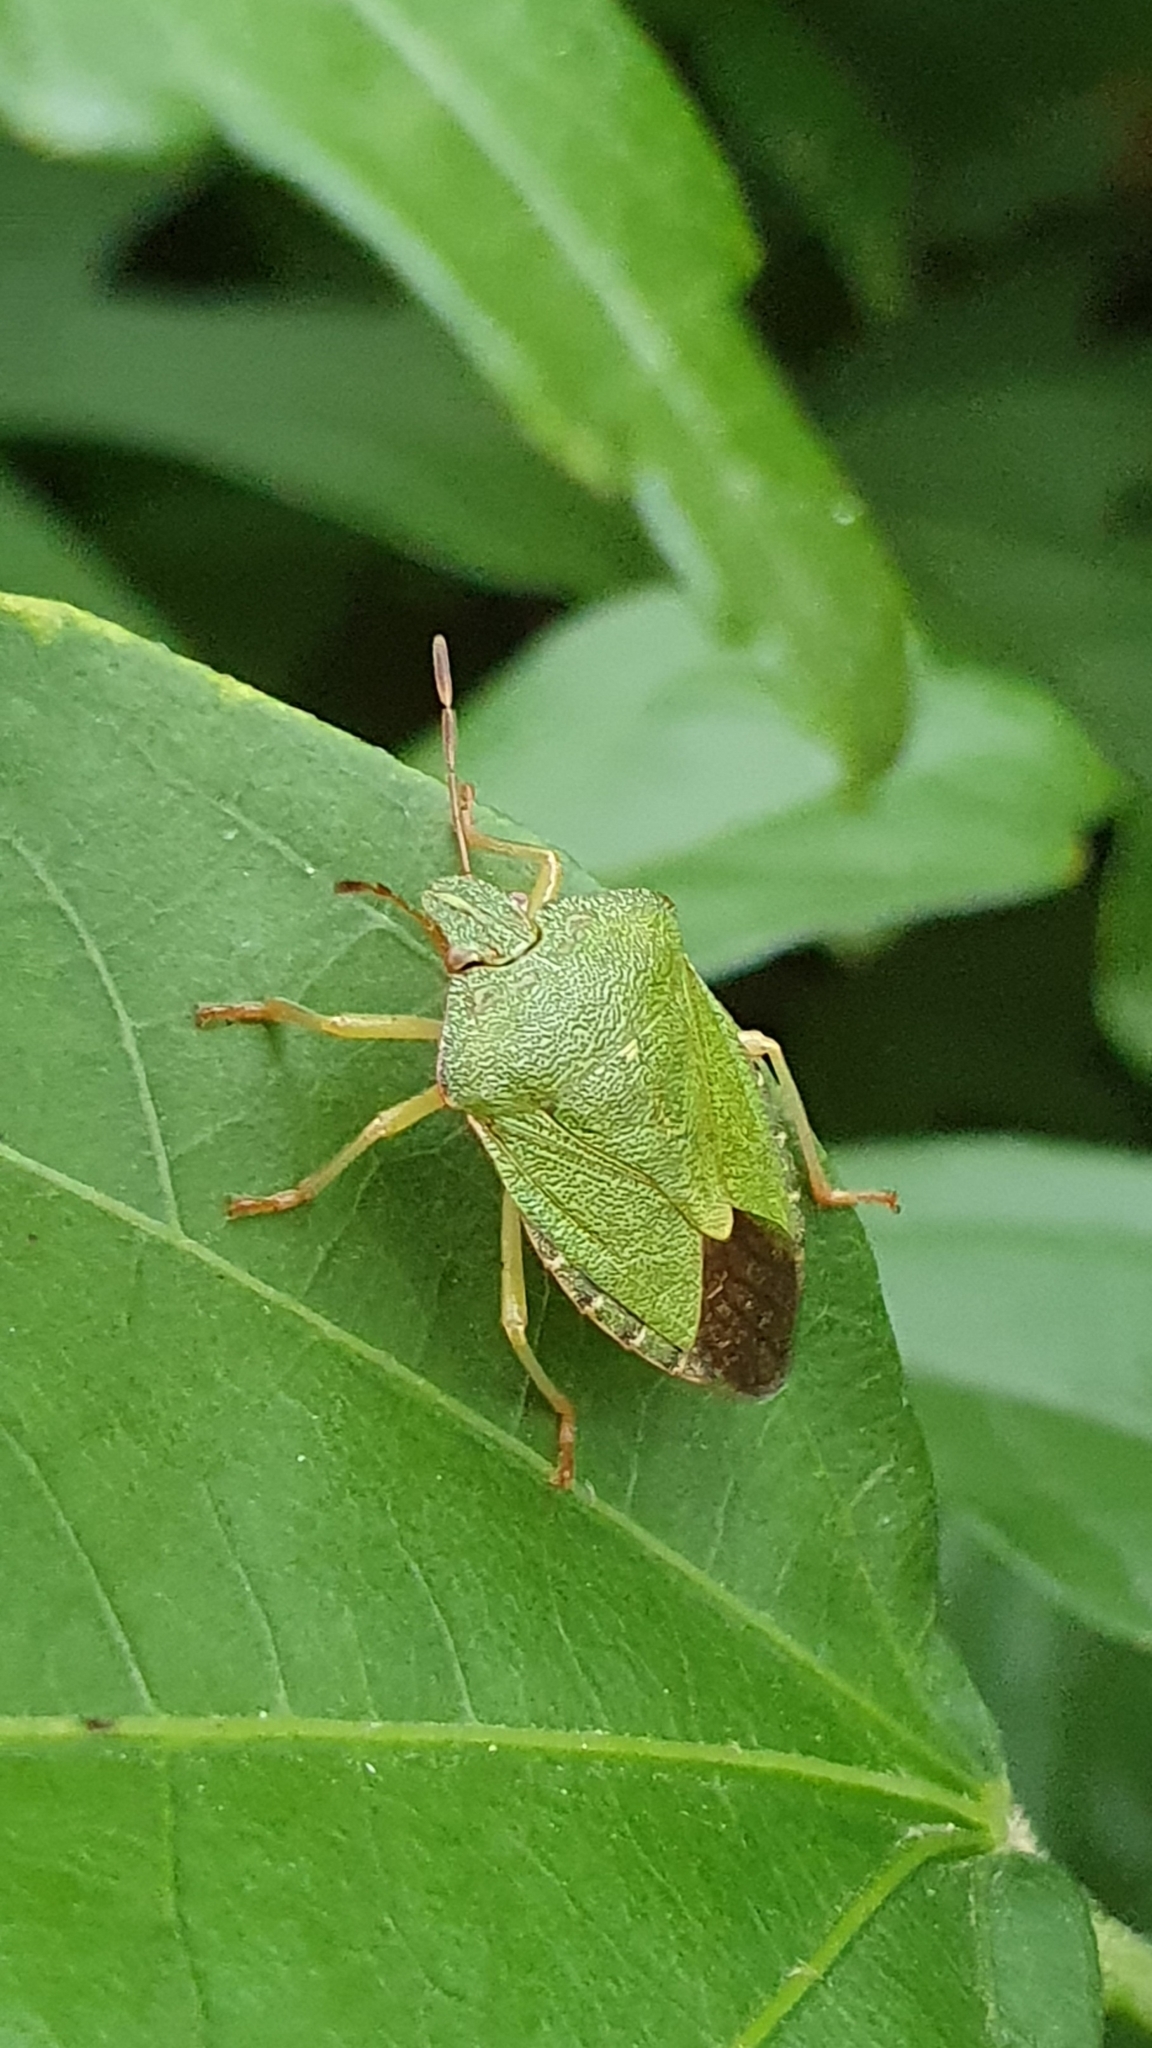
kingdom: Animalia
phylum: Arthropoda
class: Insecta
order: Hemiptera
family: Pentatomidae
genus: Palomena
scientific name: Palomena prasina
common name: Green shieldbug
